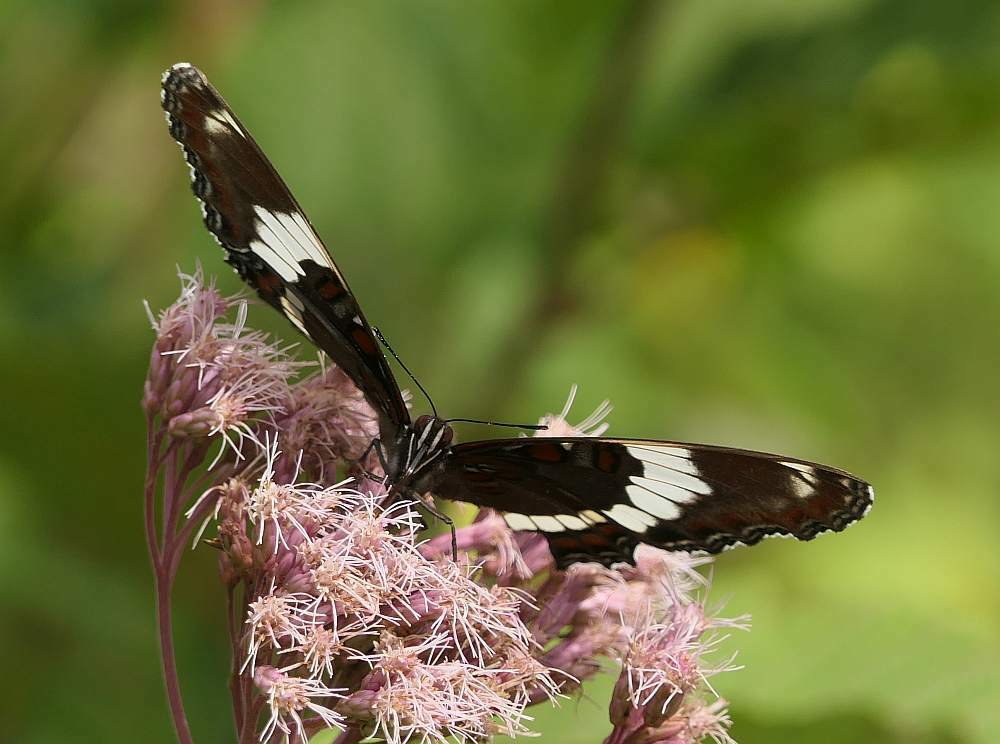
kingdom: Animalia
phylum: Arthropoda
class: Insecta
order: Lepidoptera
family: Nymphalidae
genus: Limenitis
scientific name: Limenitis arthemis
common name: Red-spotted admiral
